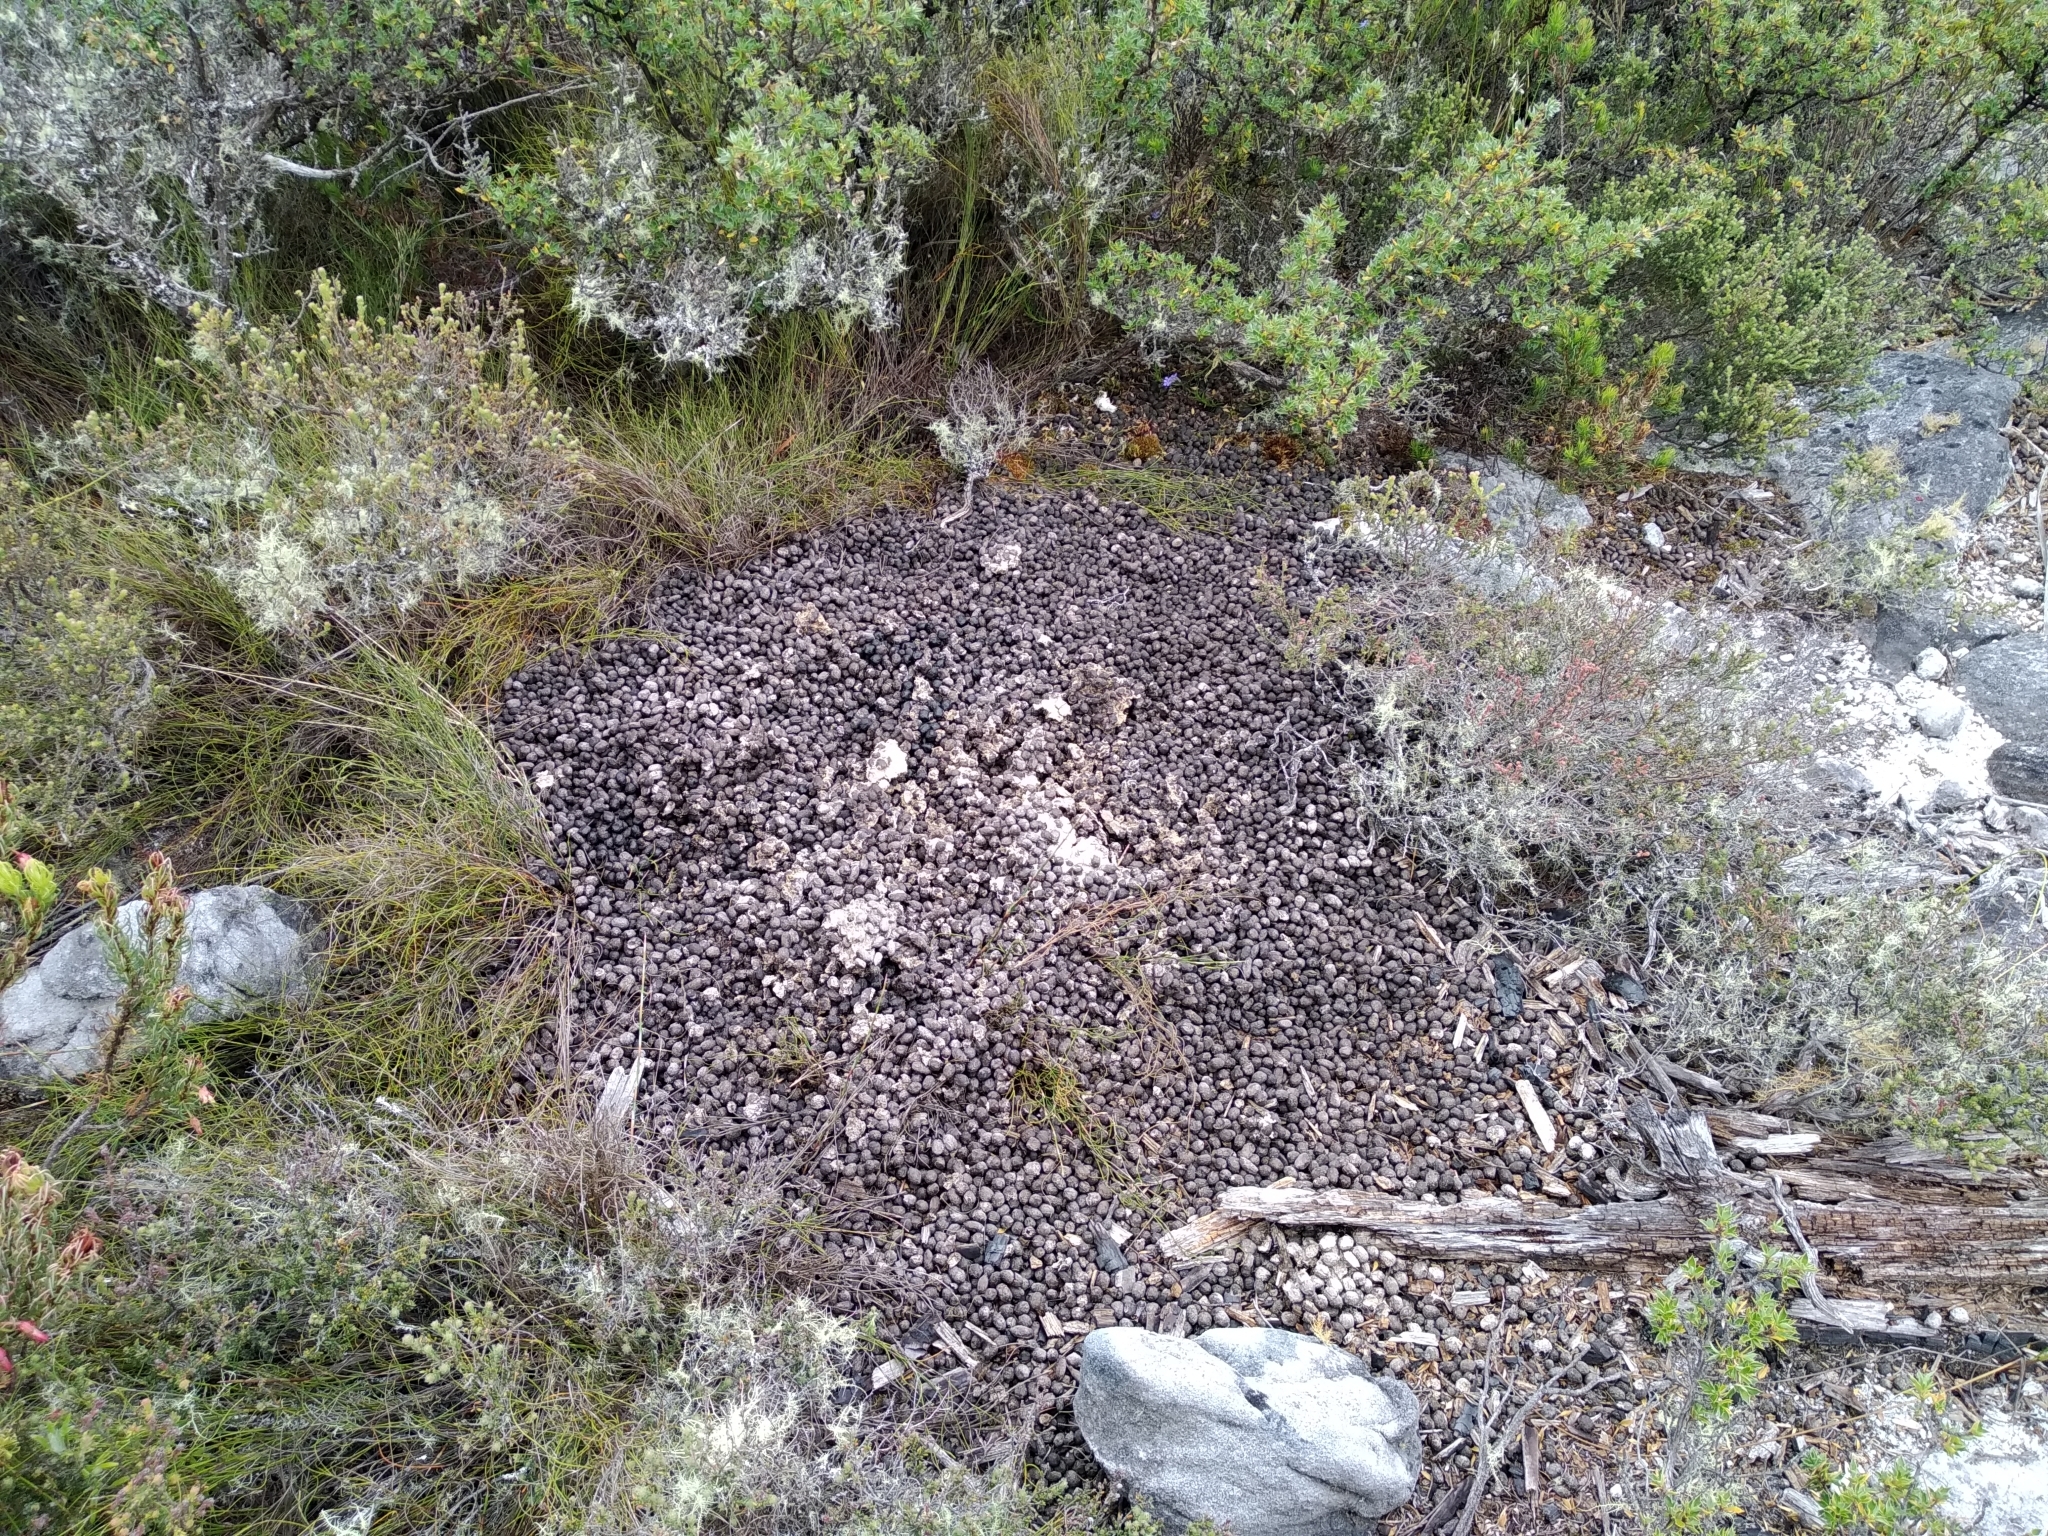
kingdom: Animalia
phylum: Chordata
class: Mammalia
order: Artiodactyla
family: Bovidae
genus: Oreotragus
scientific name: Oreotragus oreotragus
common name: Klipspringer
